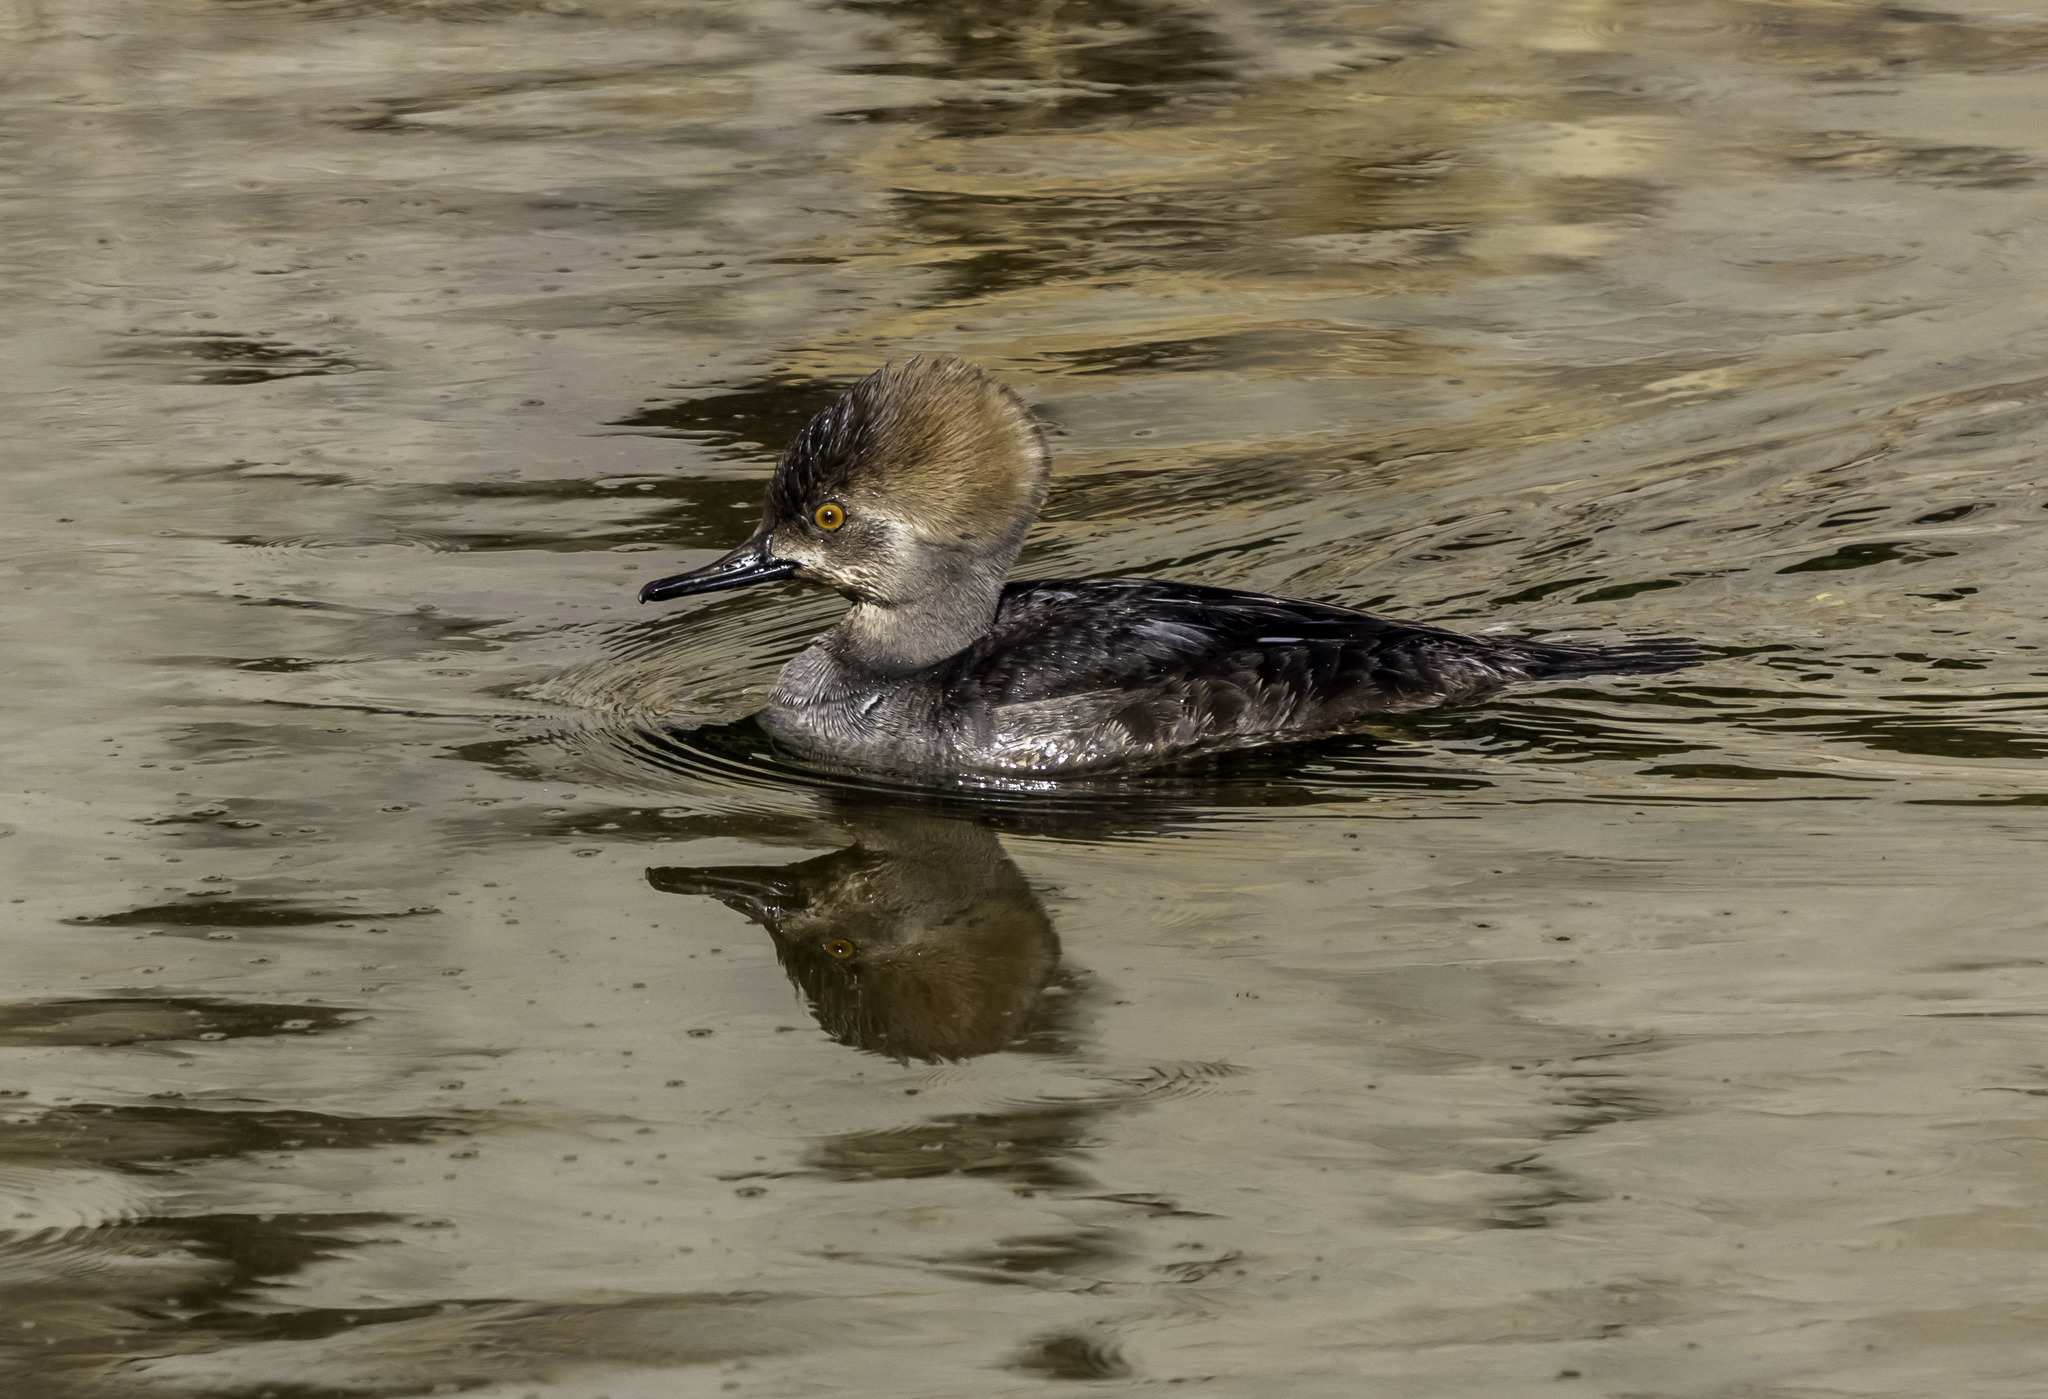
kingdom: Animalia
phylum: Chordata
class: Aves
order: Anseriformes
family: Anatidae
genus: Lophodytes
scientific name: Lophodytes cucullatus
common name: Hooded merganser
